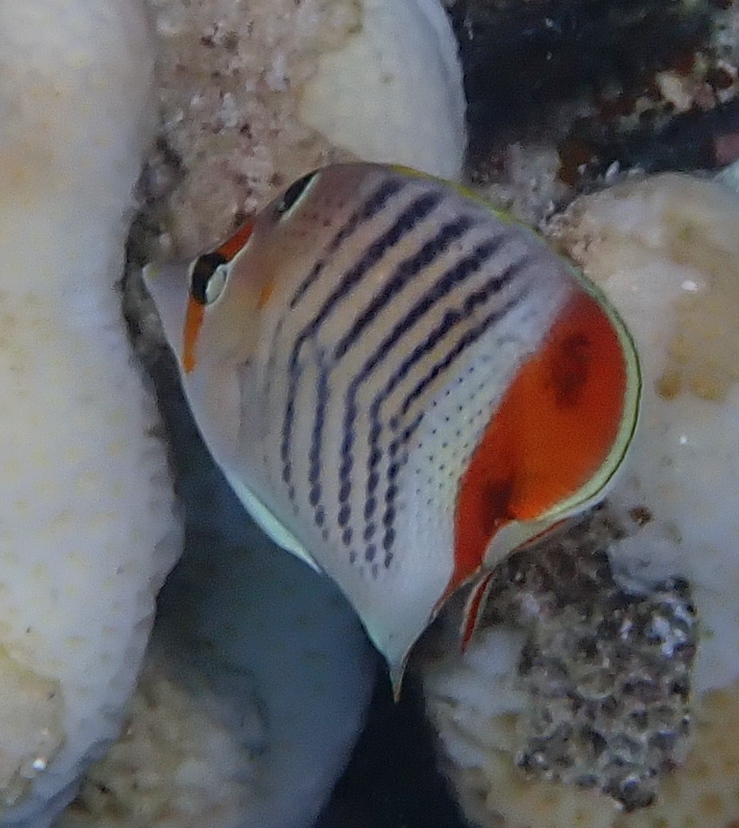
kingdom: Animalia
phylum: Chordata
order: Perciformes
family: Chaetodontidae
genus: Chaetodon
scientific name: Chaetodon paucifasciatus
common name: Crown butterflyfish
